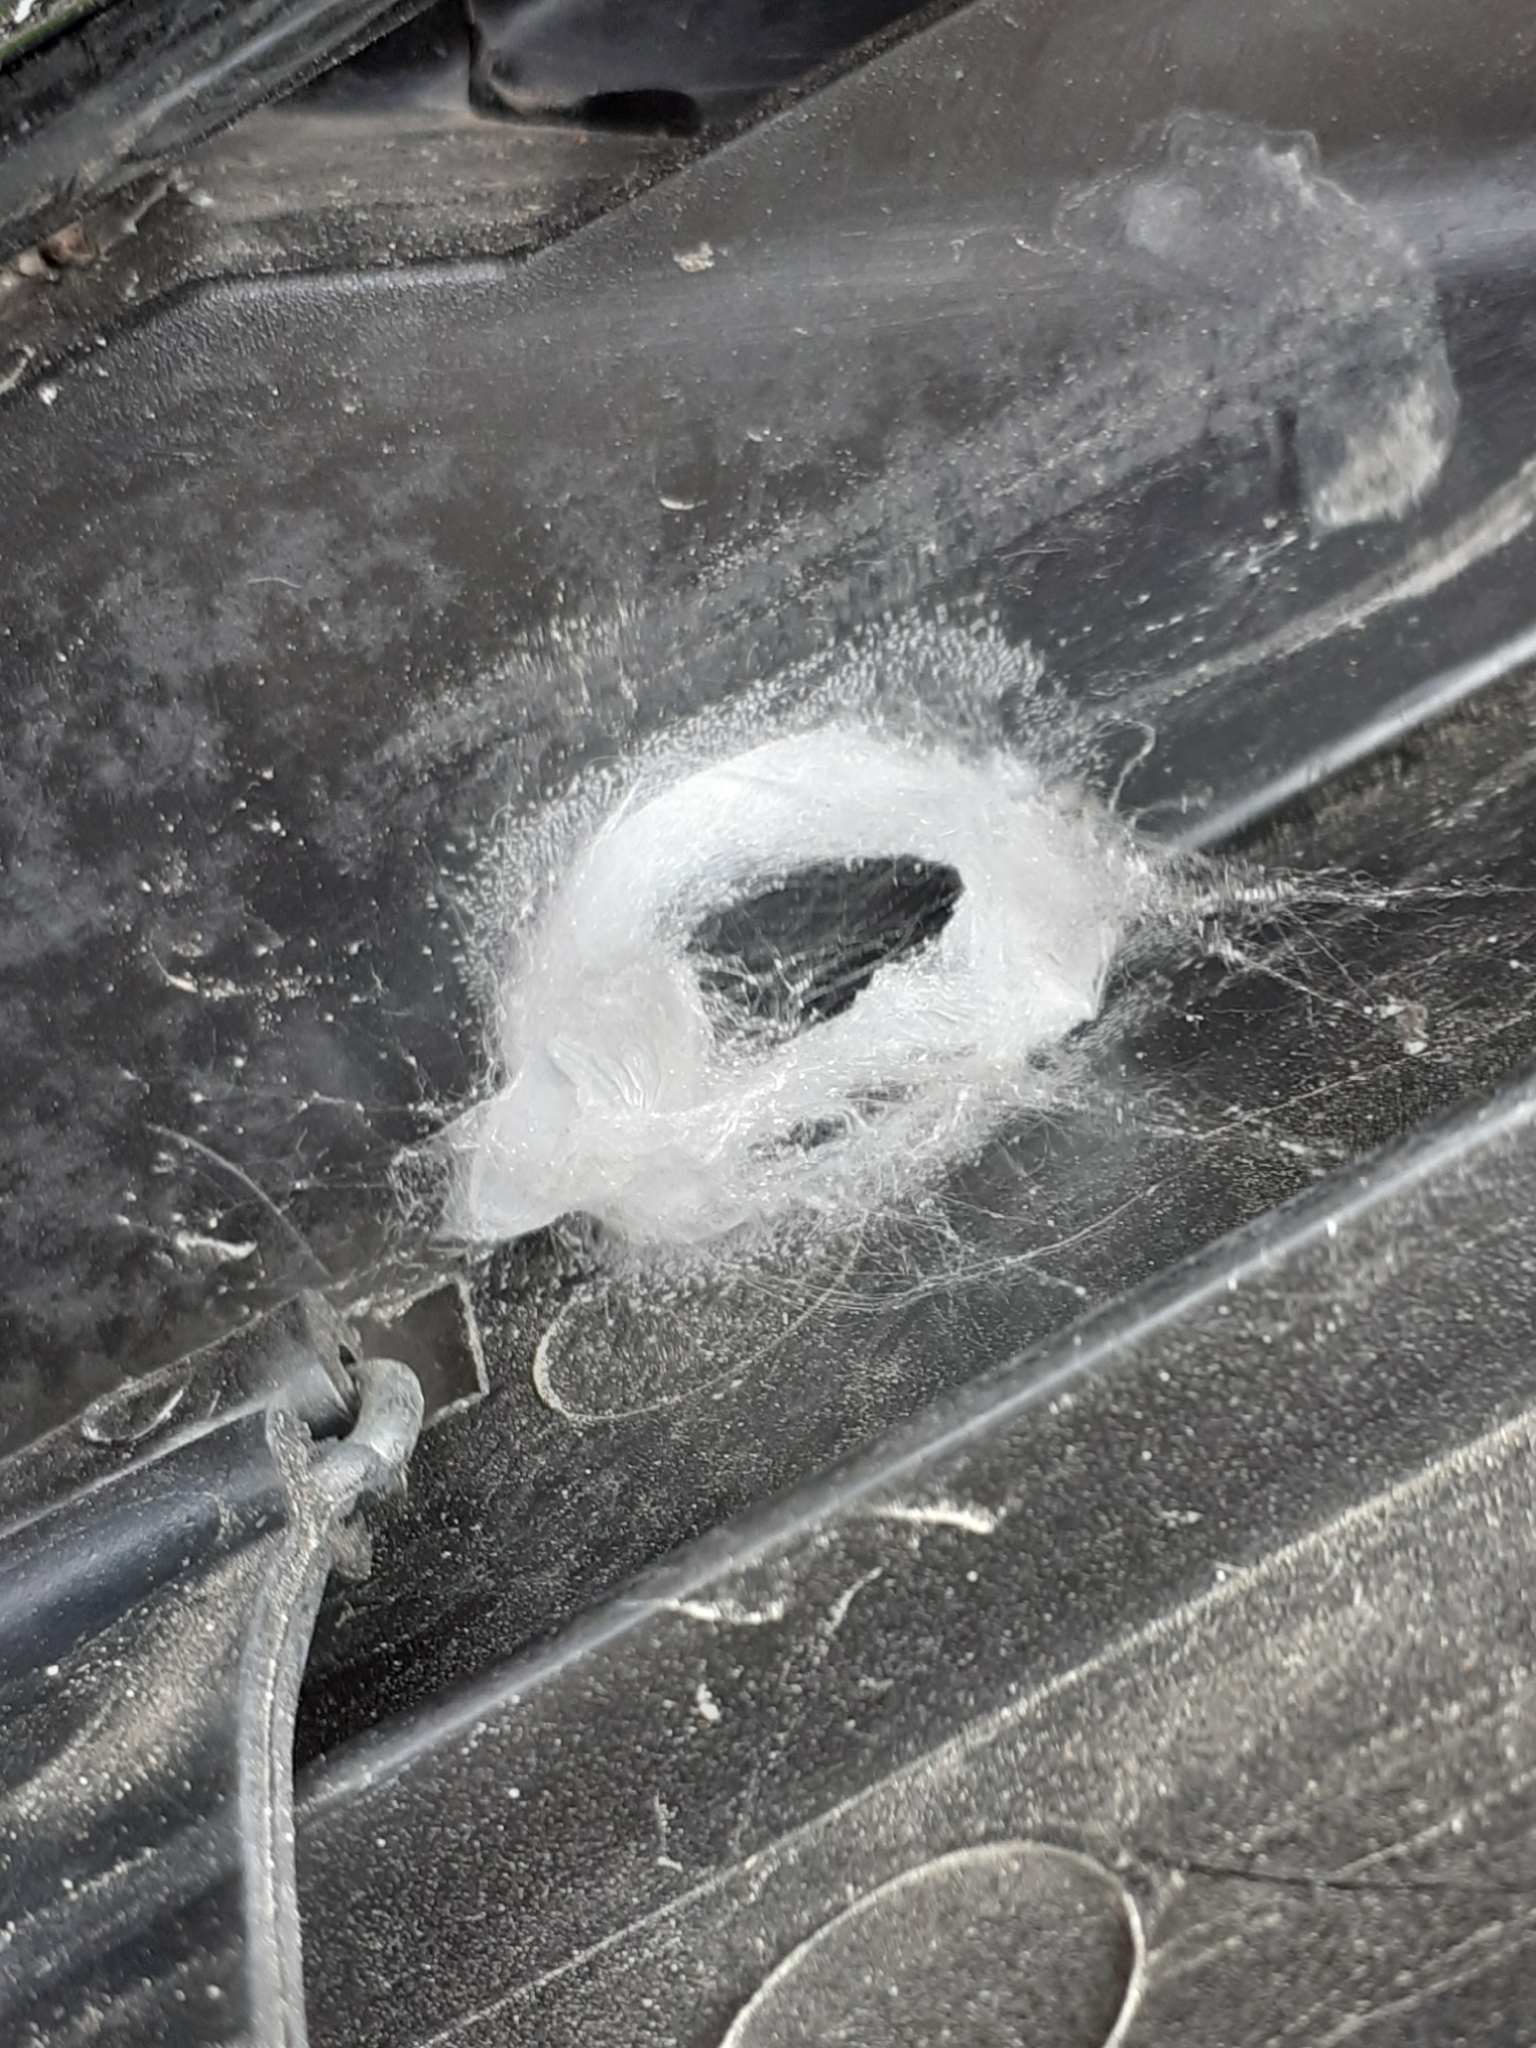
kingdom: Animalia
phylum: Arthropoda
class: Arachnida
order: Araneae
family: Salticidae
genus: Megafreya
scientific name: Megafreya sutrix
